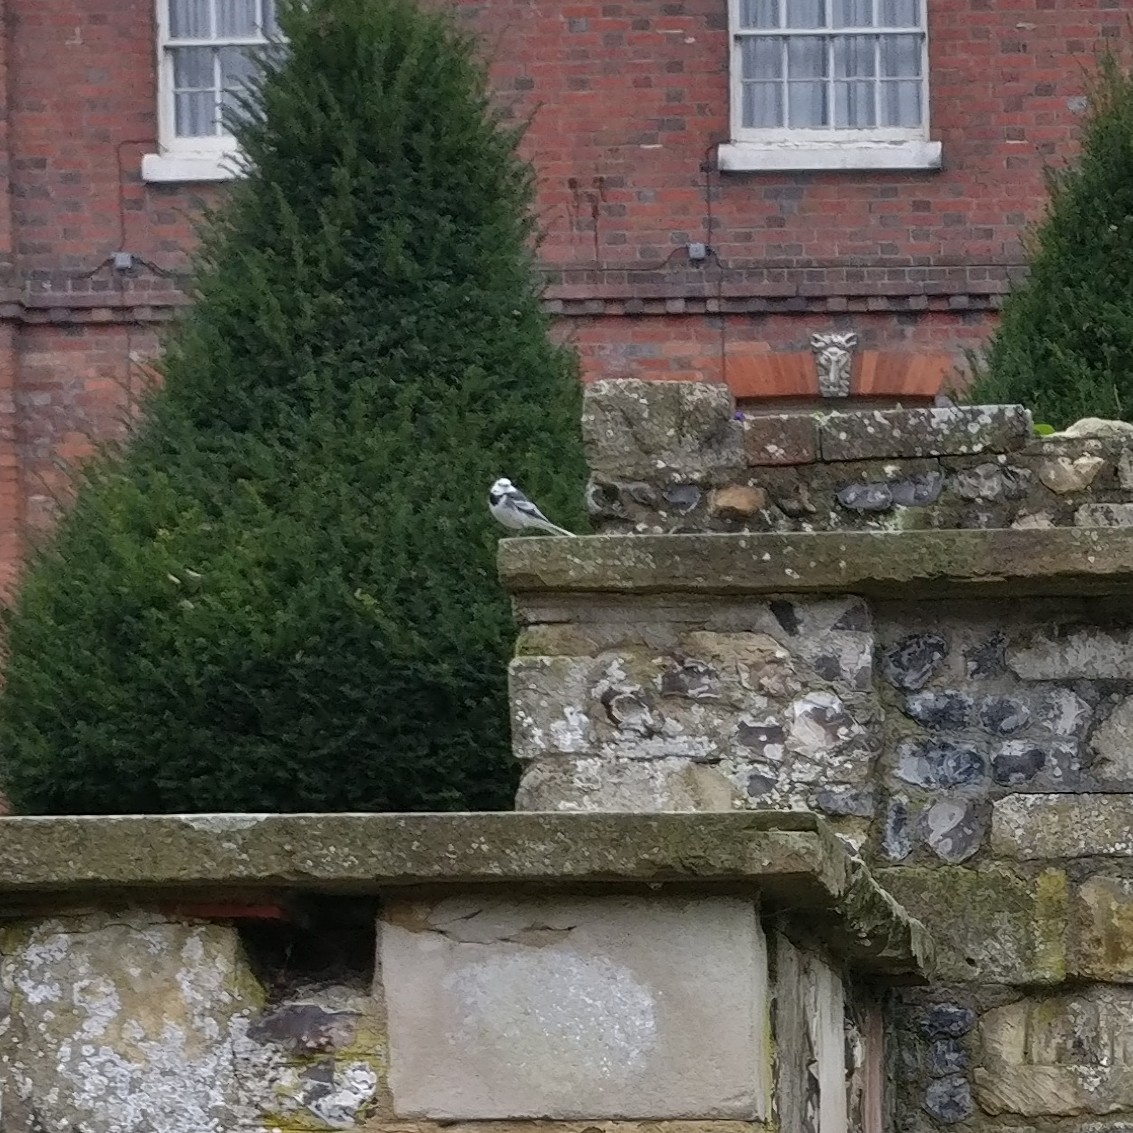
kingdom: Animalia
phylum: Chordata
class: Aves
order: Passeriformes
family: Motacillidae
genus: Motacilla
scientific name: Motacilla alba
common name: White wagtail
